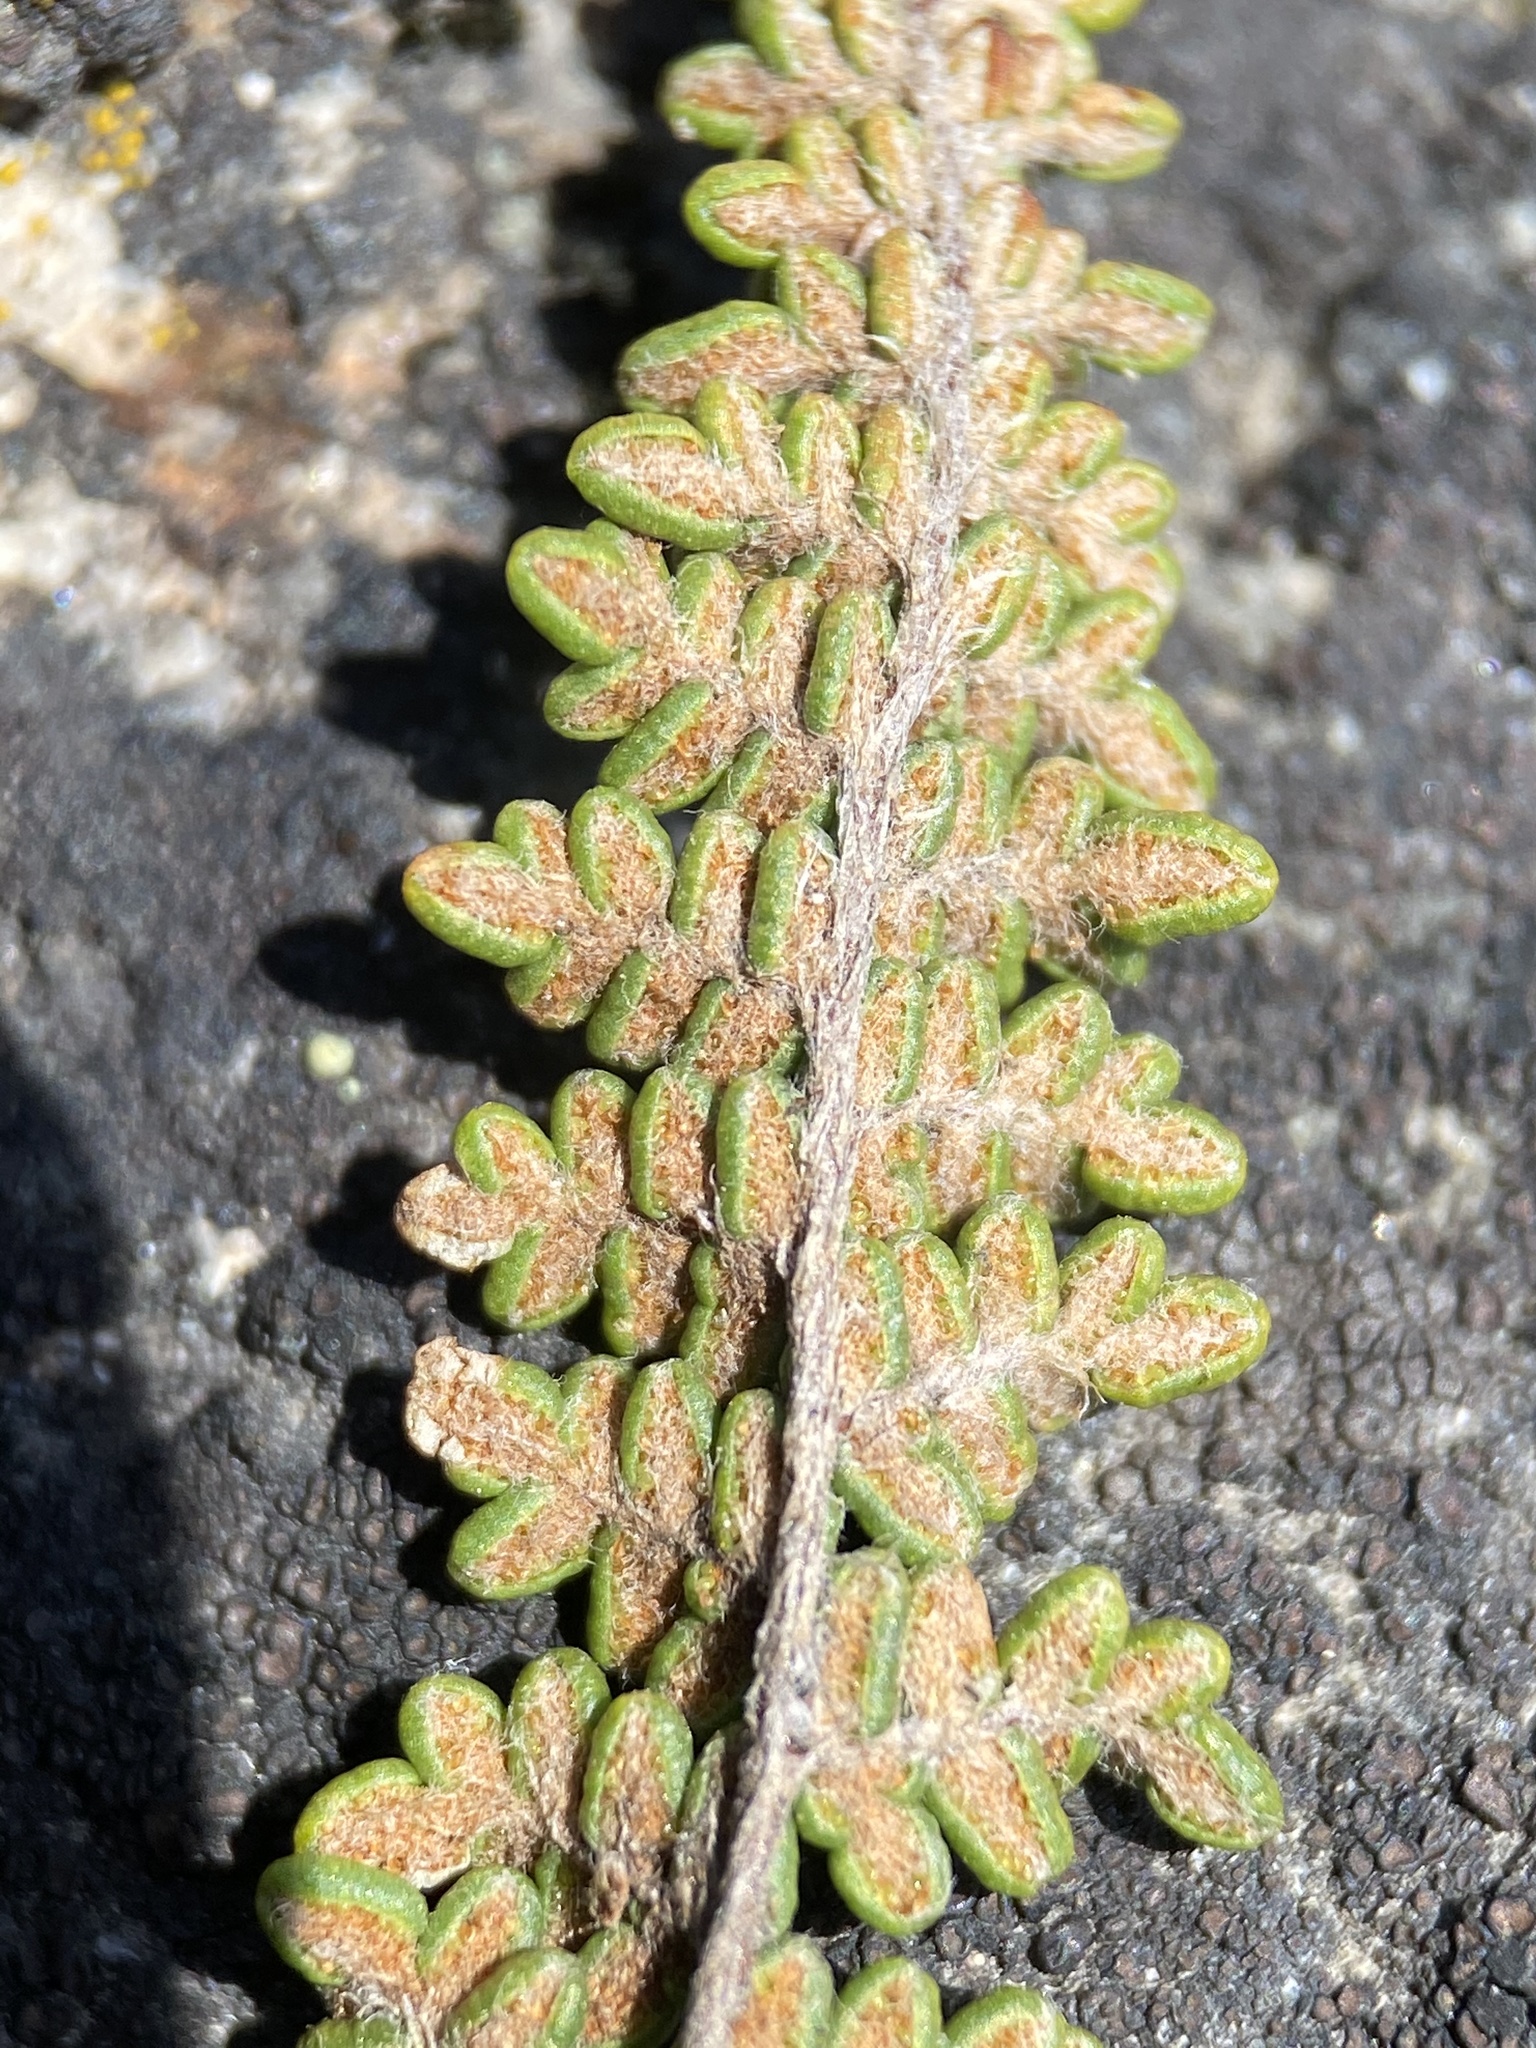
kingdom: Plantae
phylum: Tracheophyta
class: Polypodiopsida
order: Polypodiales
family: Pteridaceae
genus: Myriopteris
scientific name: Myriopteris gracillima
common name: Lace fern
